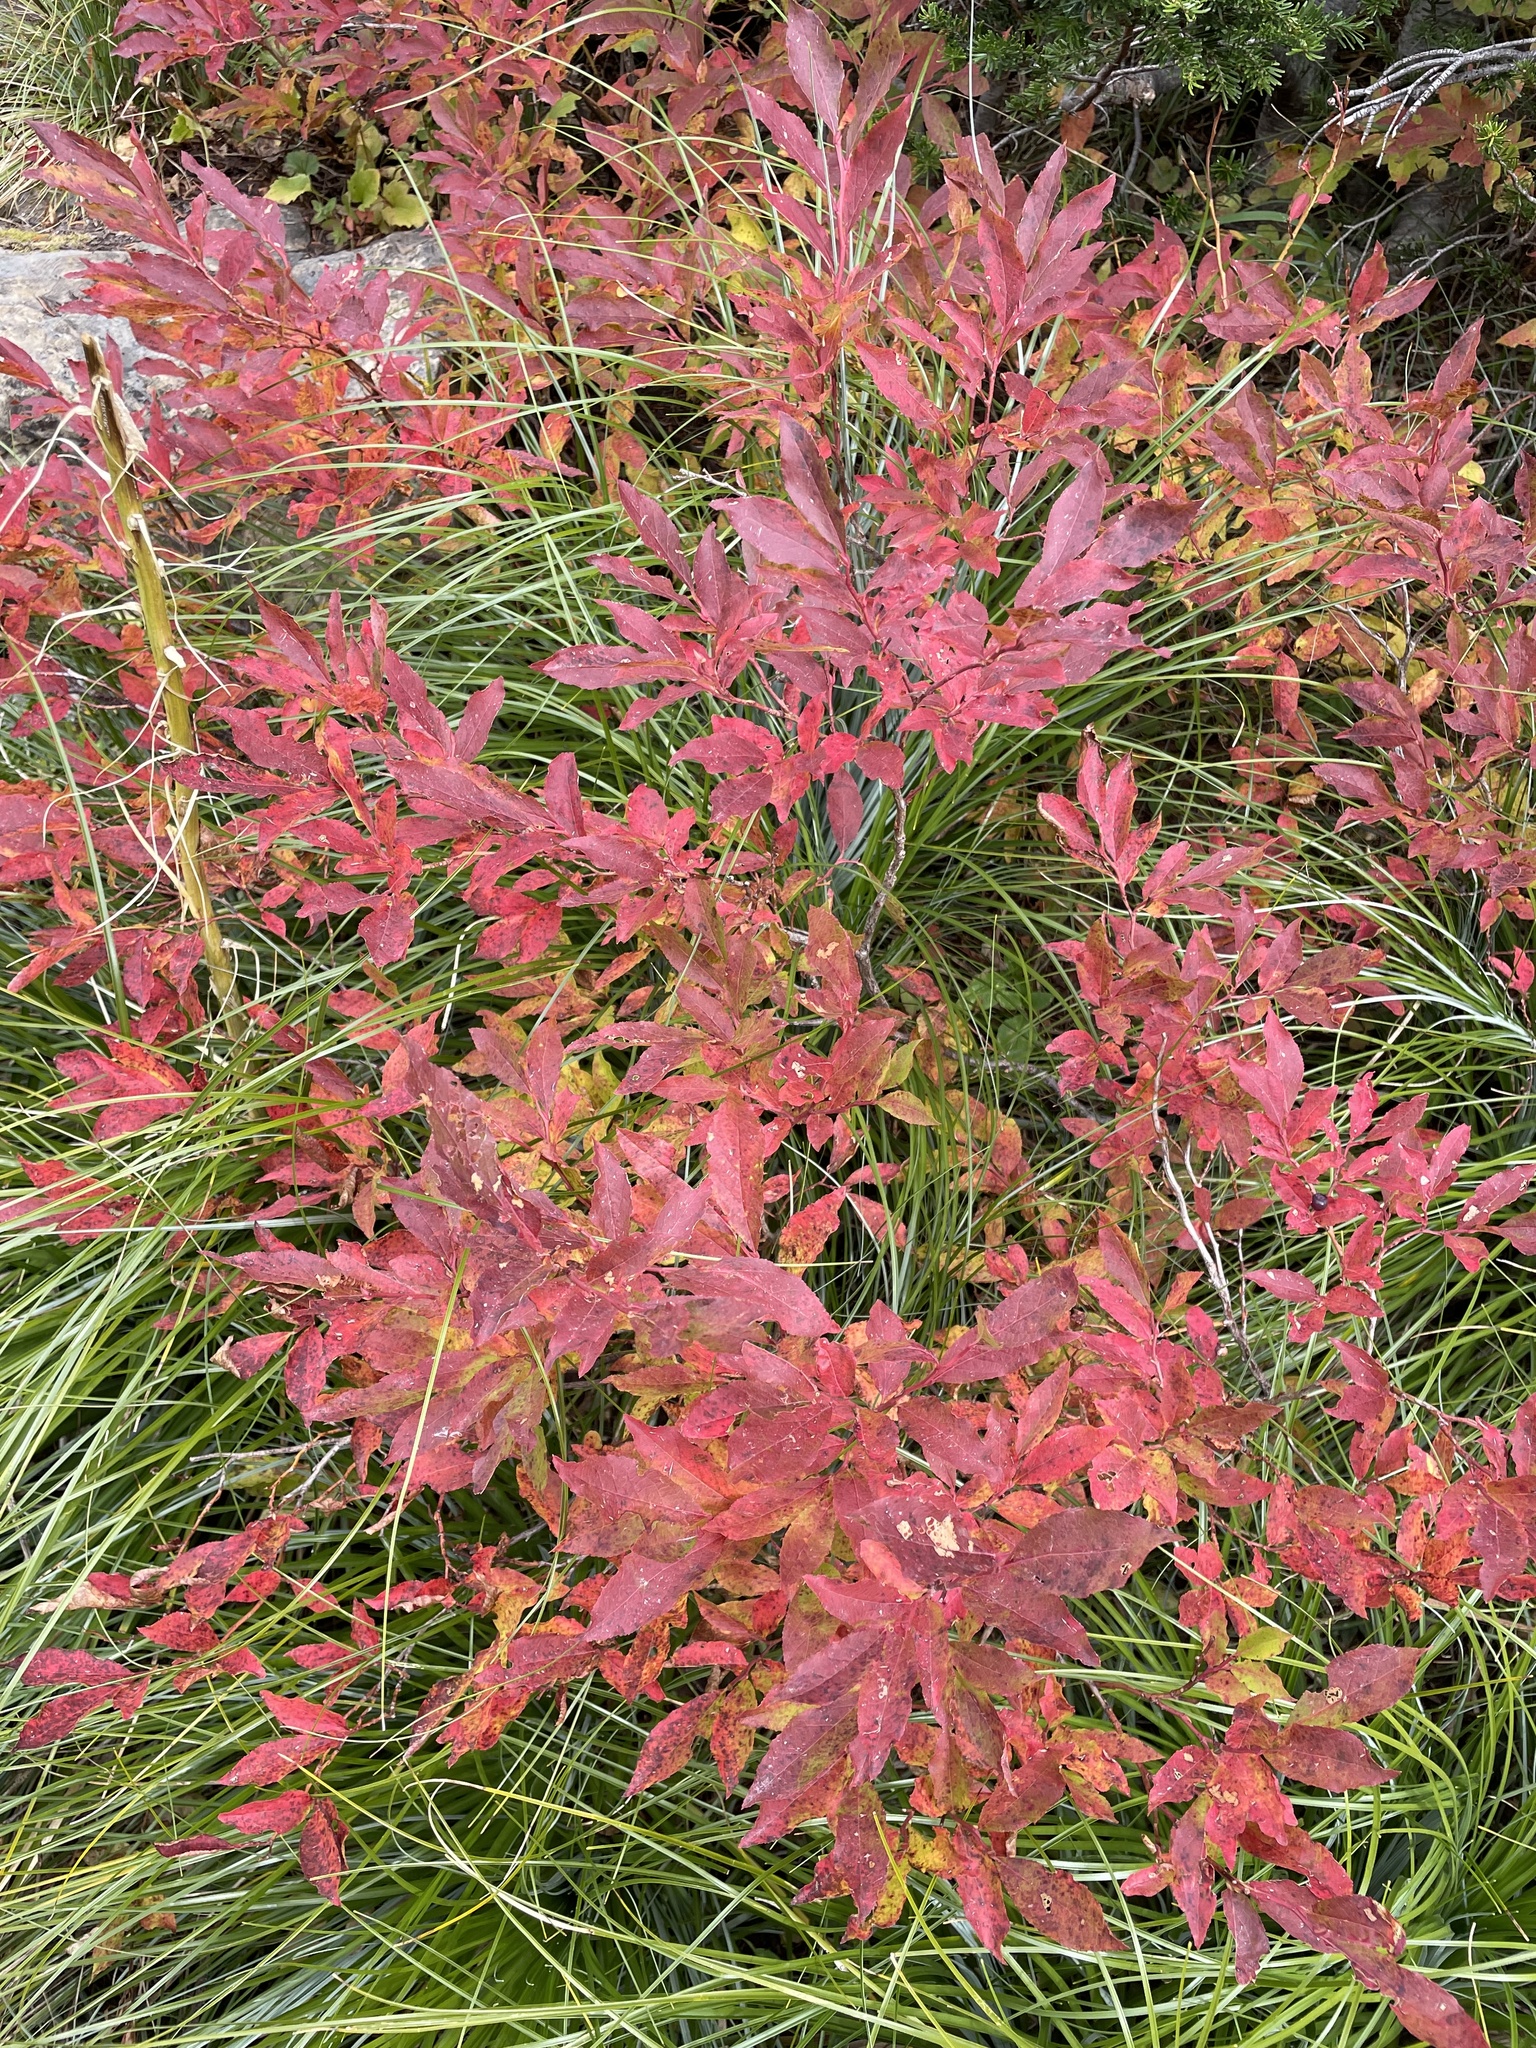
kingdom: Plantae
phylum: Tracheophyta
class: Magnoliopsida
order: Ericales
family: Ericaceae
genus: Vaccinium
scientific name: Vaccinium membranaceum
